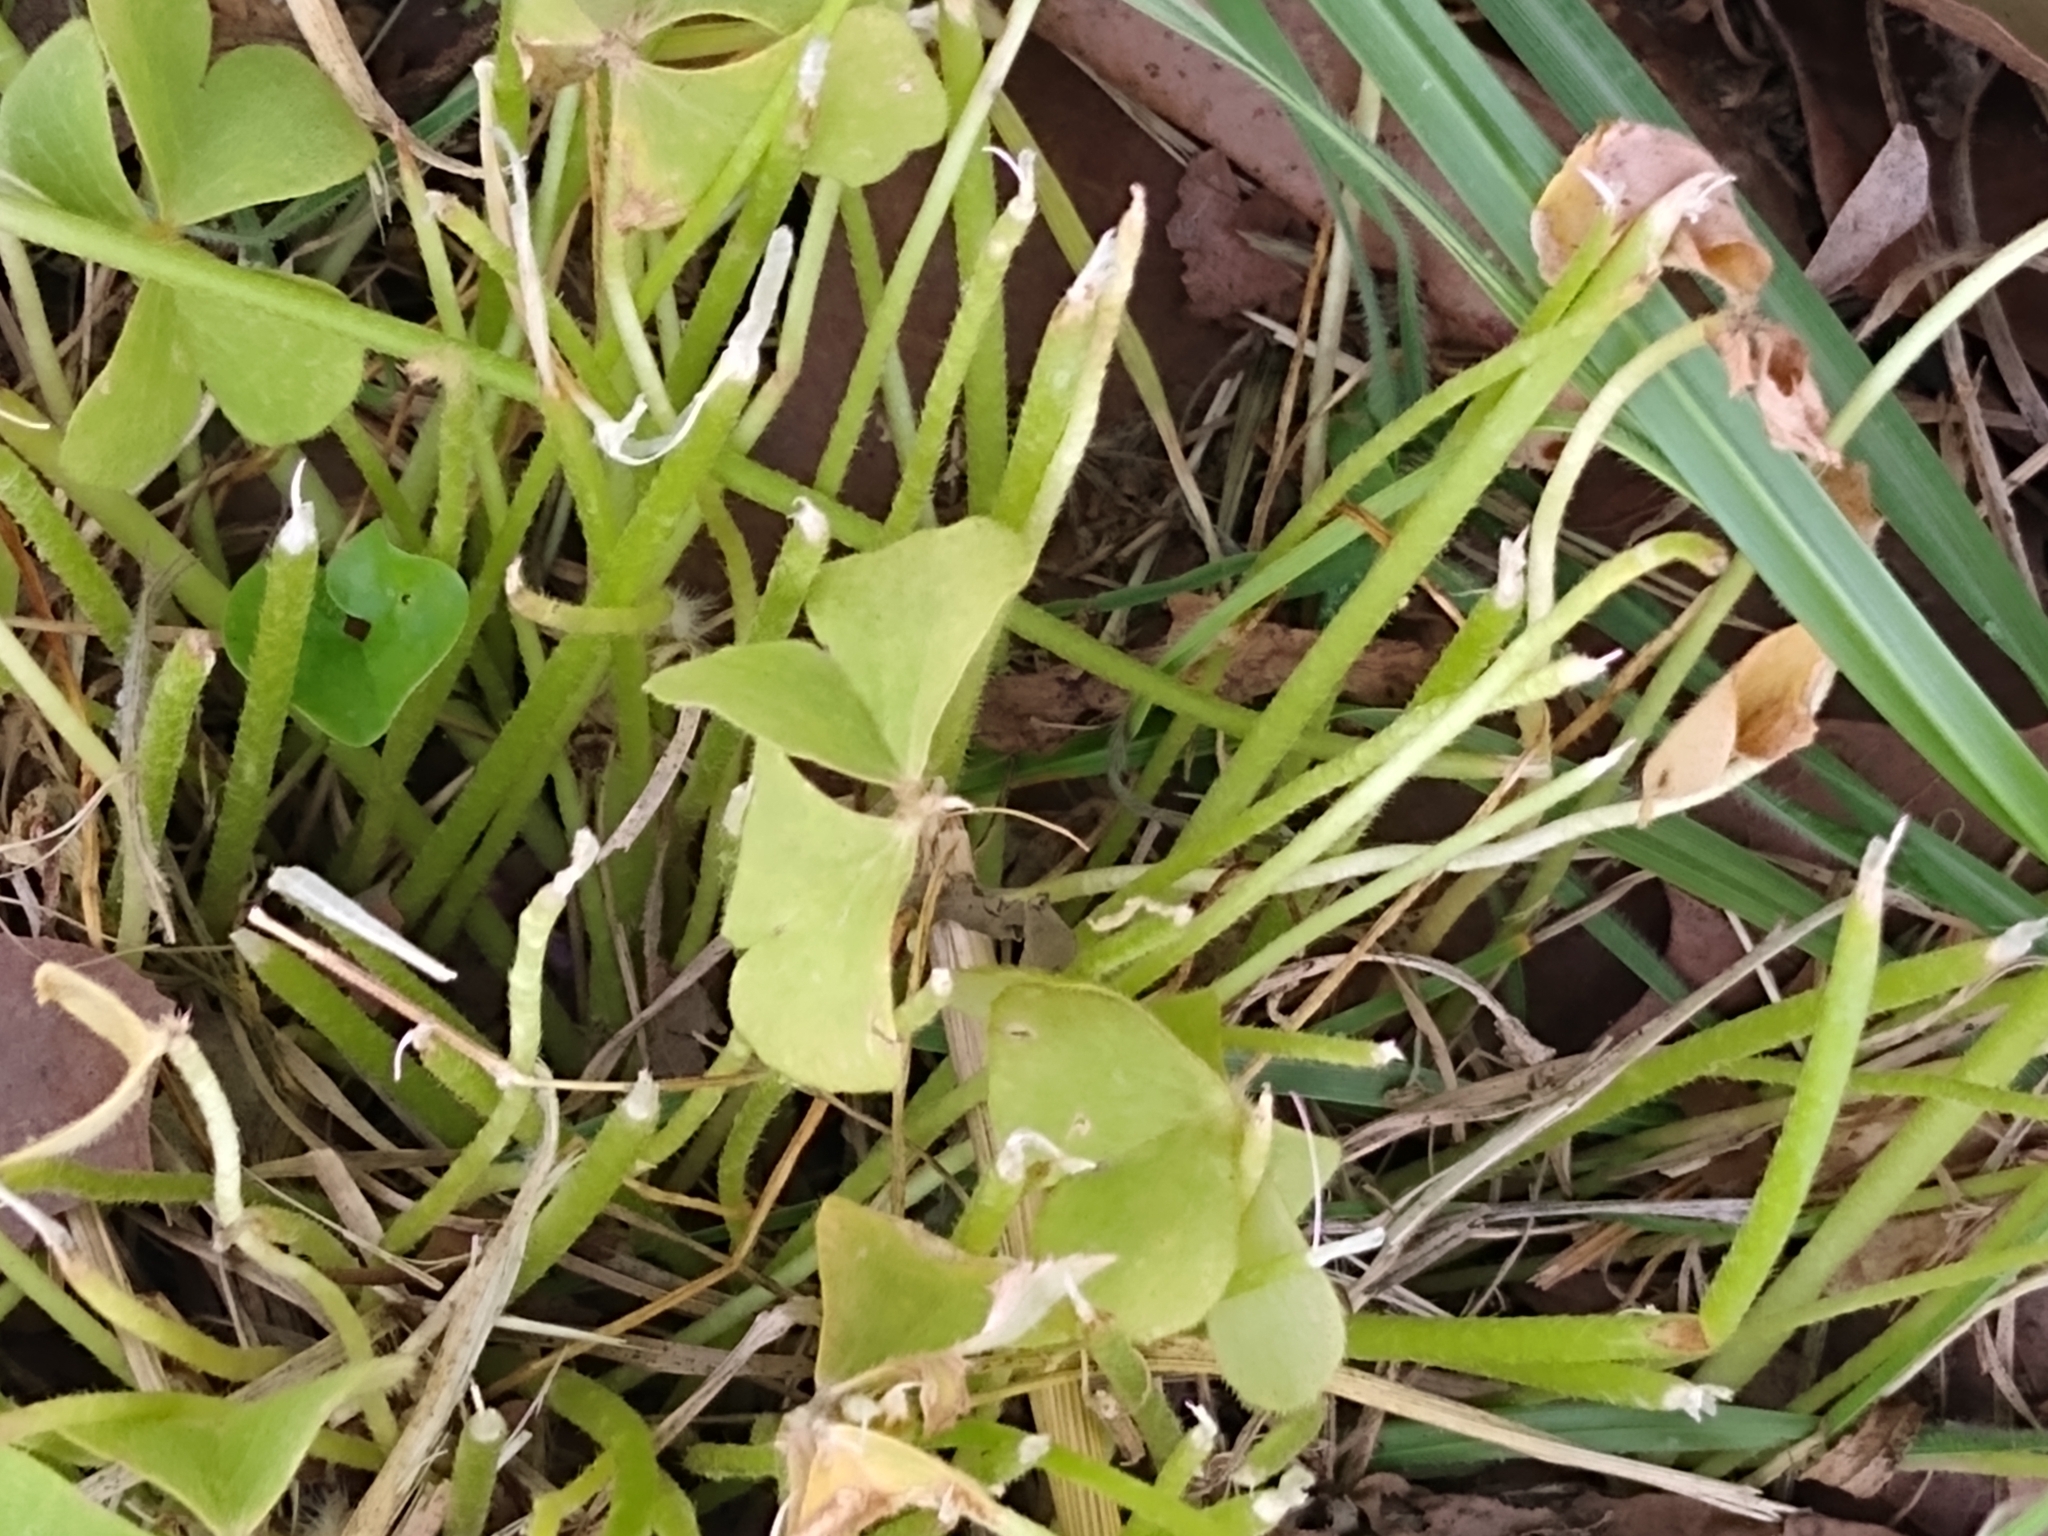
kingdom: Plantae
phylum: Tracheophyta
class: Magnoliopsida
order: Oxalidales
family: Oxalidaceae
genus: Oxalis
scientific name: Oxalis articulata
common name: Pink-sorrel
